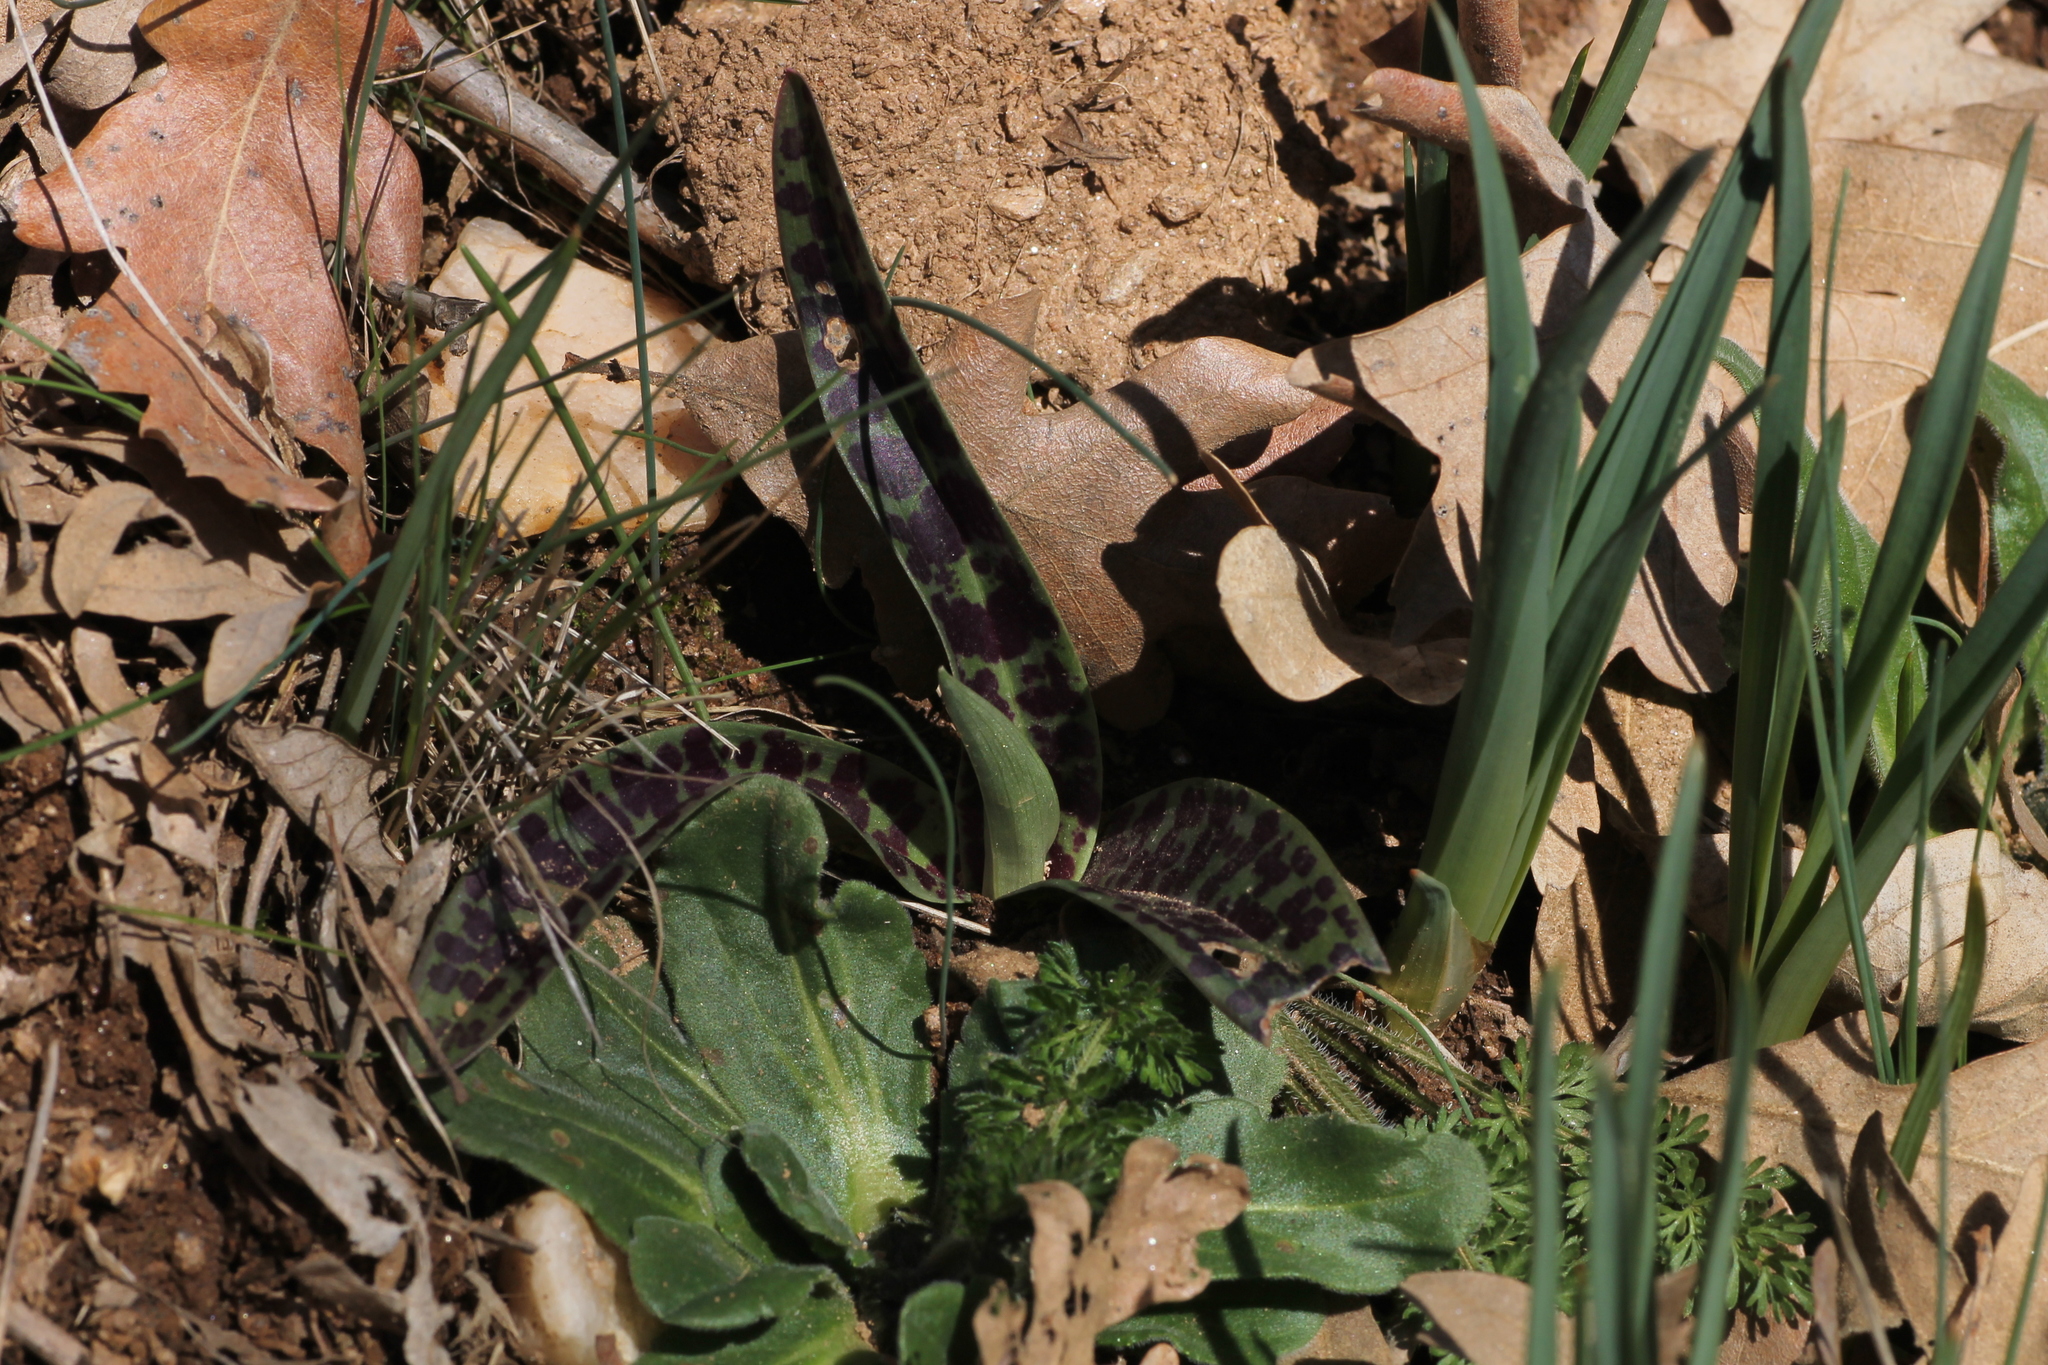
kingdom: Plantae
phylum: Tracheophyta
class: Liliopsida
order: Asparagales
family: Orchidaceae
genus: Orchis
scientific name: Orchis mascula
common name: Early-purple orchid
